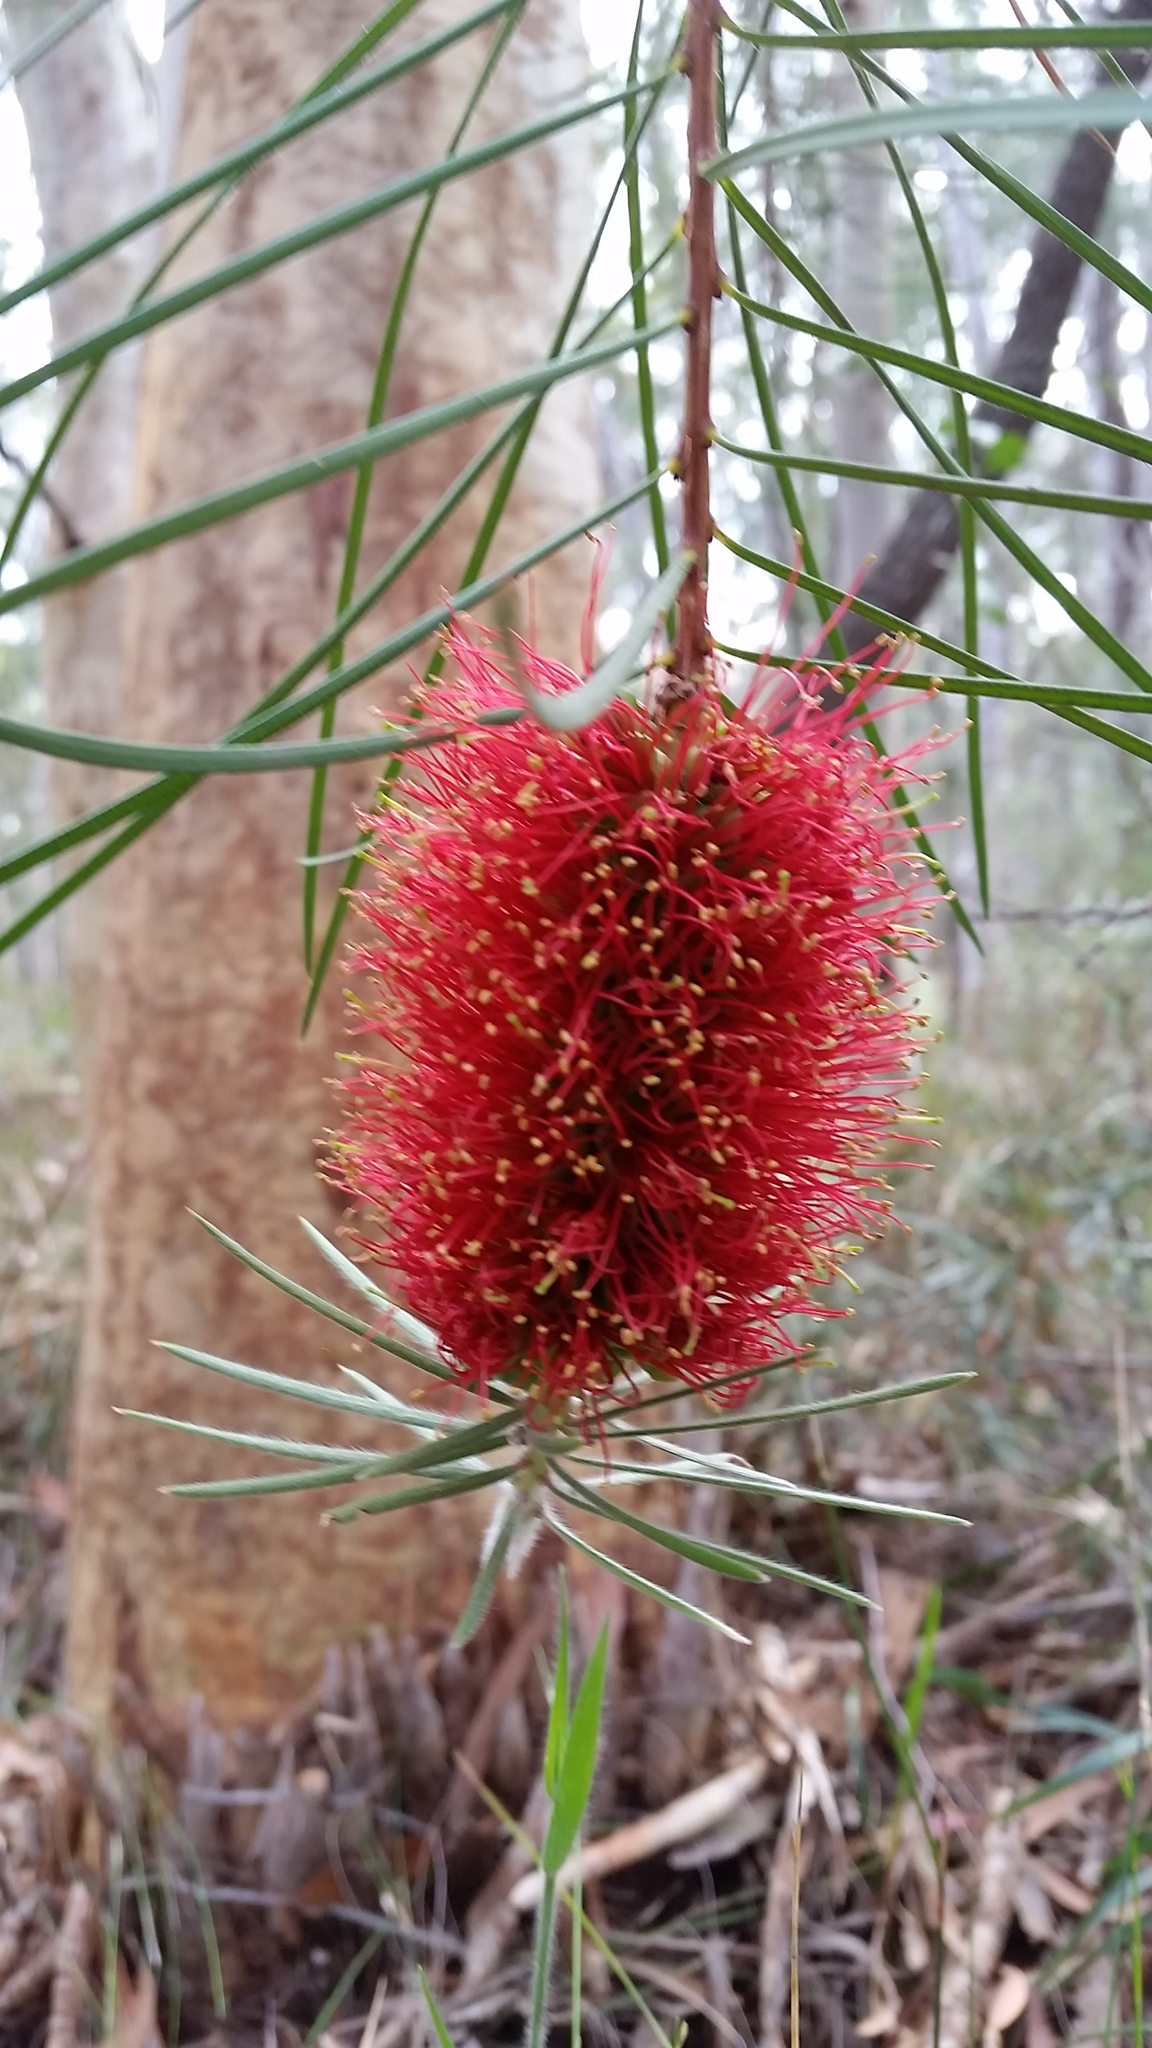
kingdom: Plantae
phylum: Tracheophyta
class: Magnoliopsida
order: Myrtales
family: Myrtaceae
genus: Callistemon
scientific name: Callistemon linearis
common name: Narrow-leaf bottlebrush
